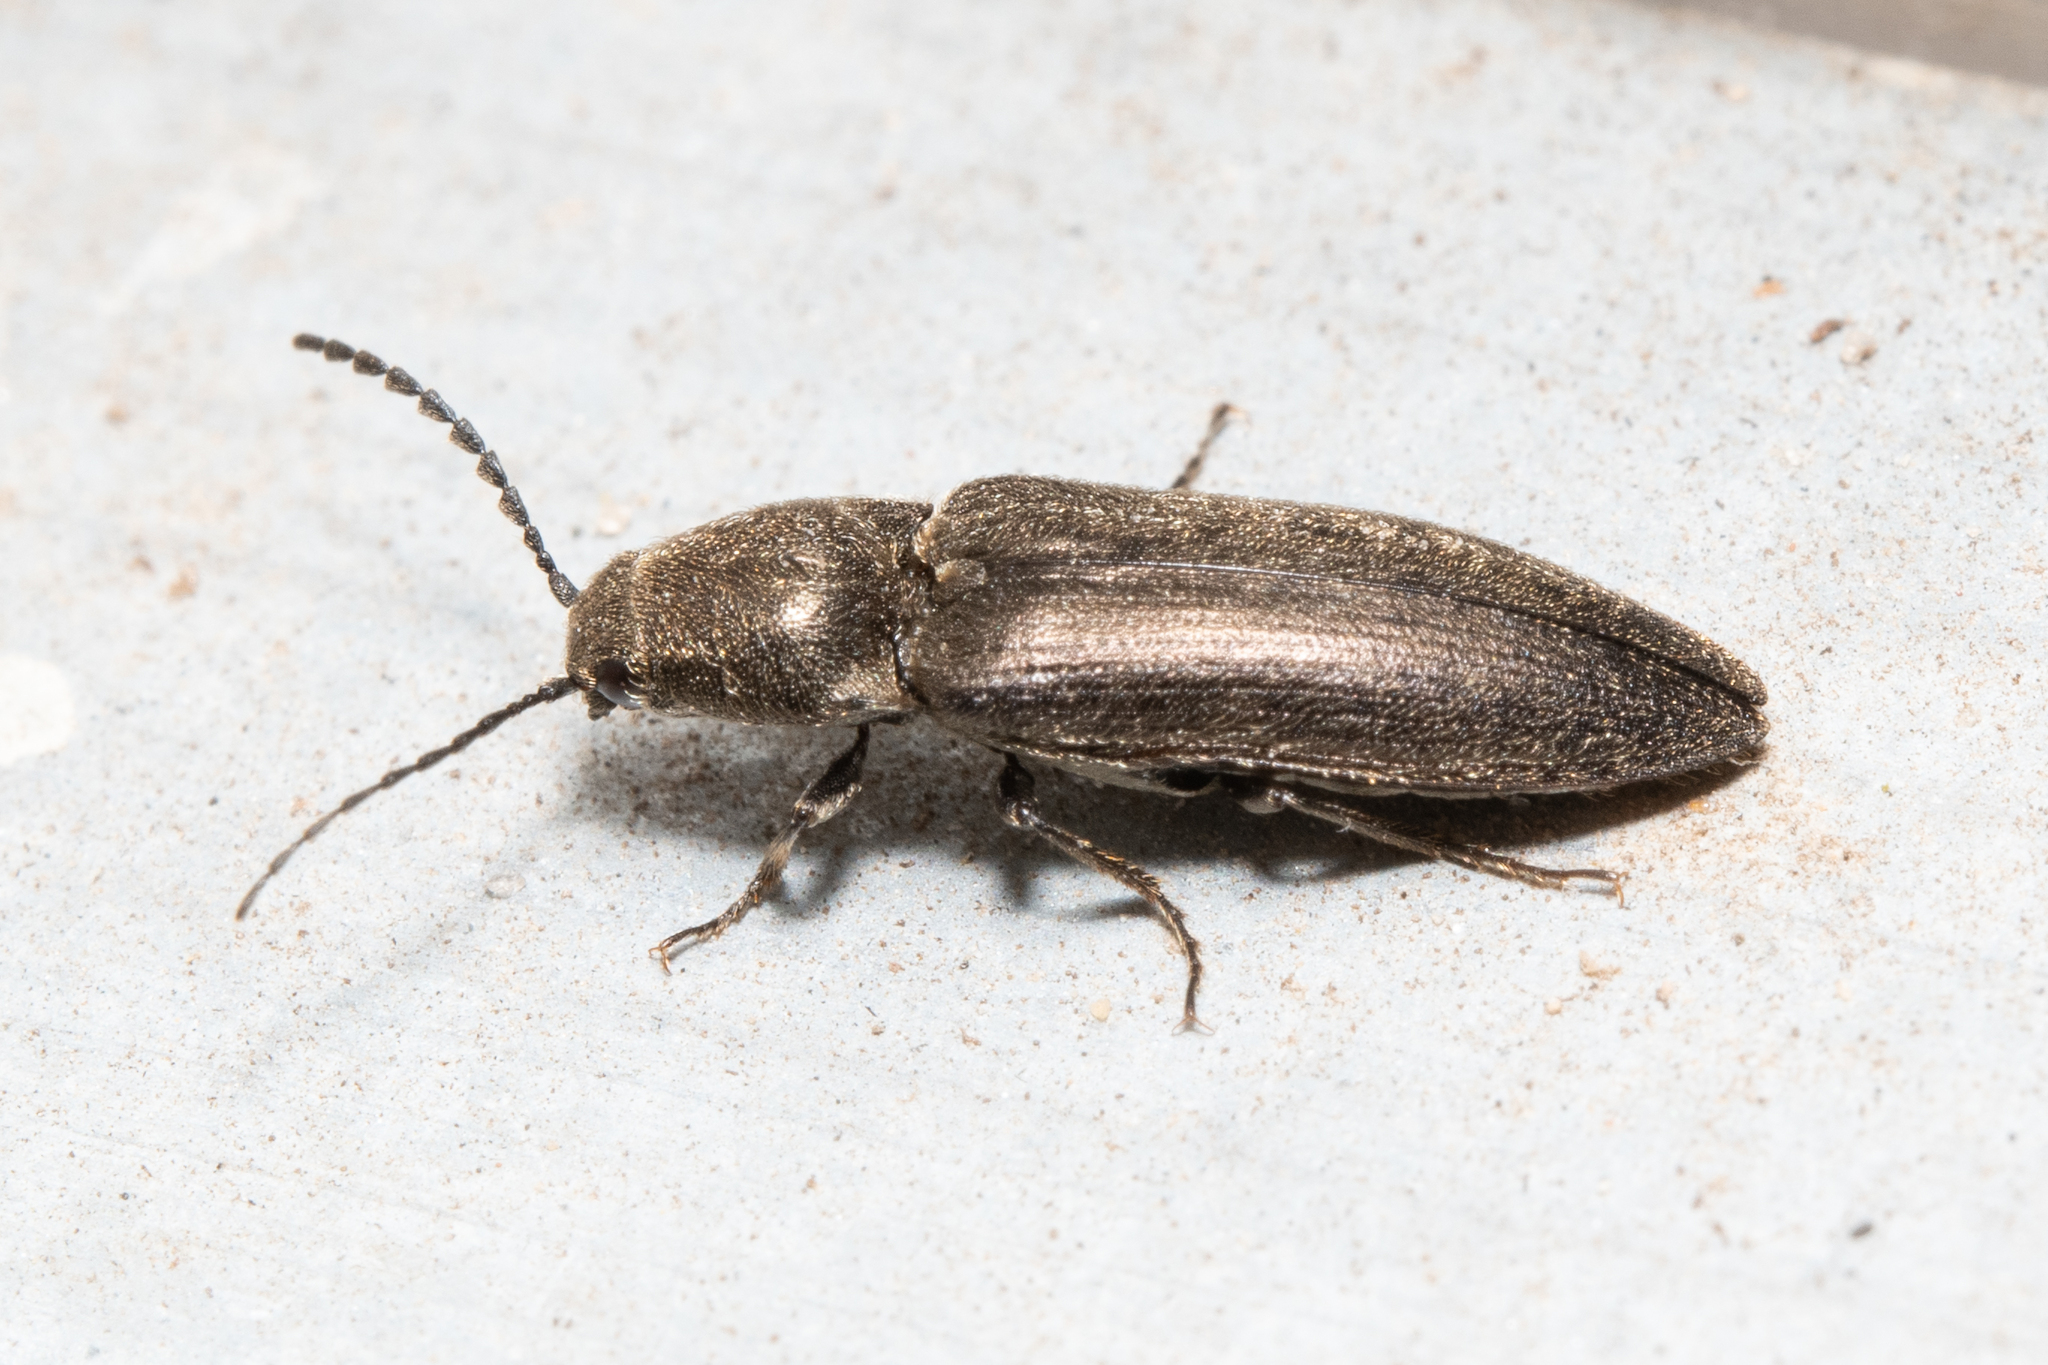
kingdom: Animalia
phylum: Arthropoda
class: Insecta
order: Coleoptera
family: Elateridae
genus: Cidnopus
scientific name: Cidnopus aeruginosus
